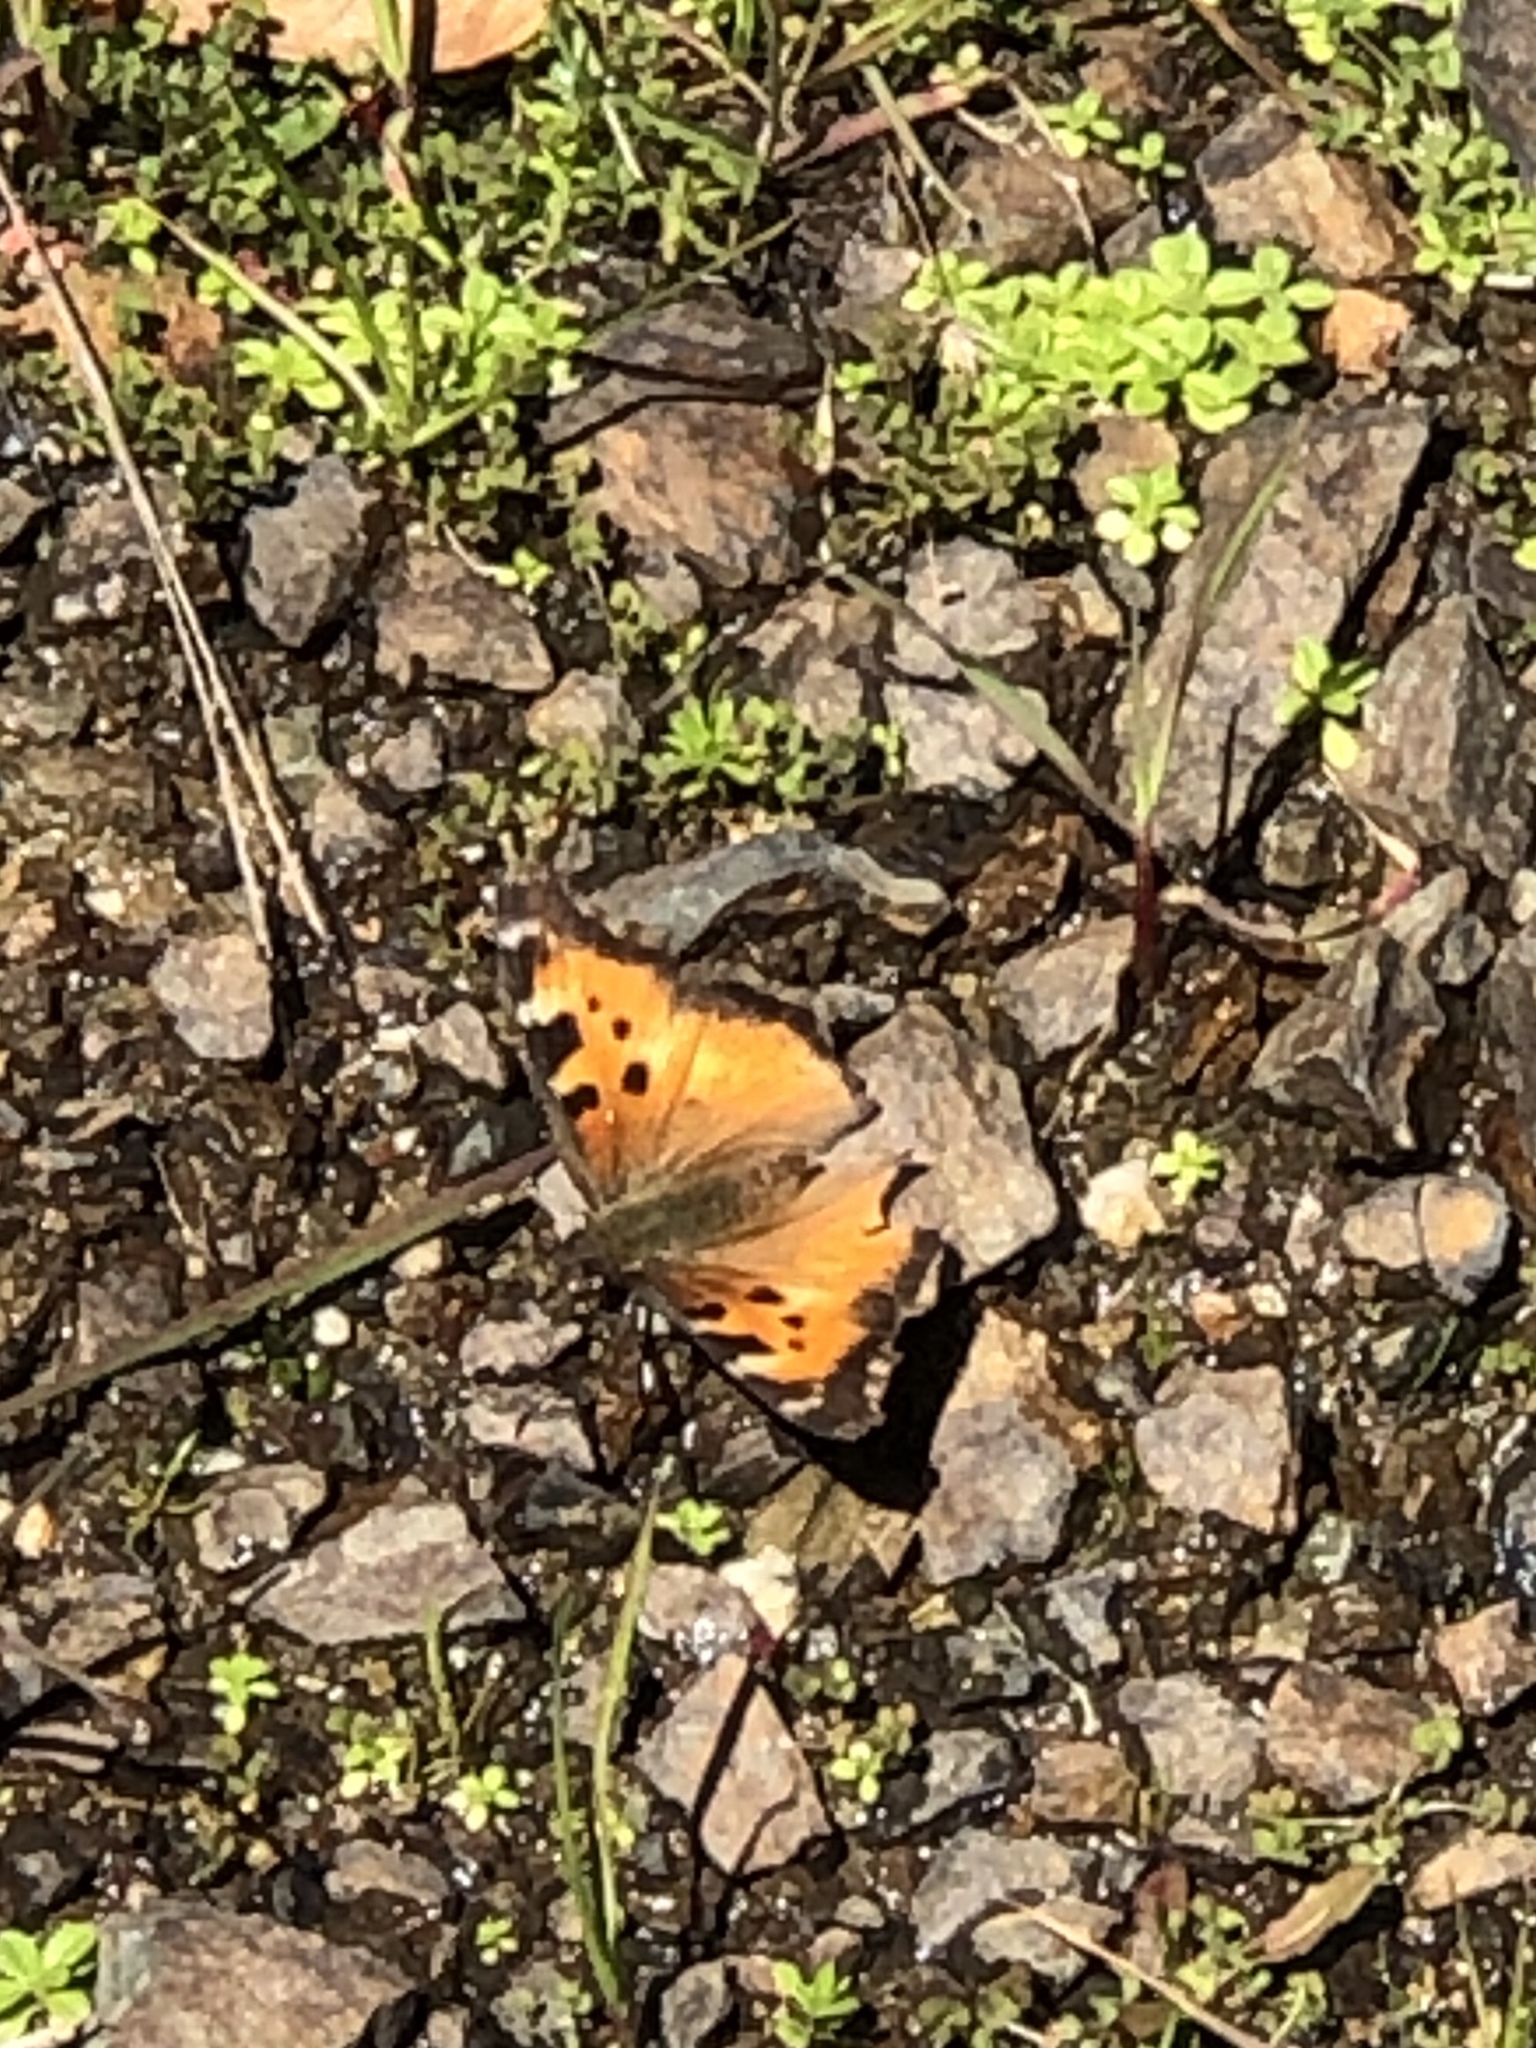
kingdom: Animalia
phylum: Arthropoda
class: Insecta
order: Lepidoptera
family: Nymphalidae
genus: Nymphalis
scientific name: Nymphalis californica
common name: California tortoiseshell
